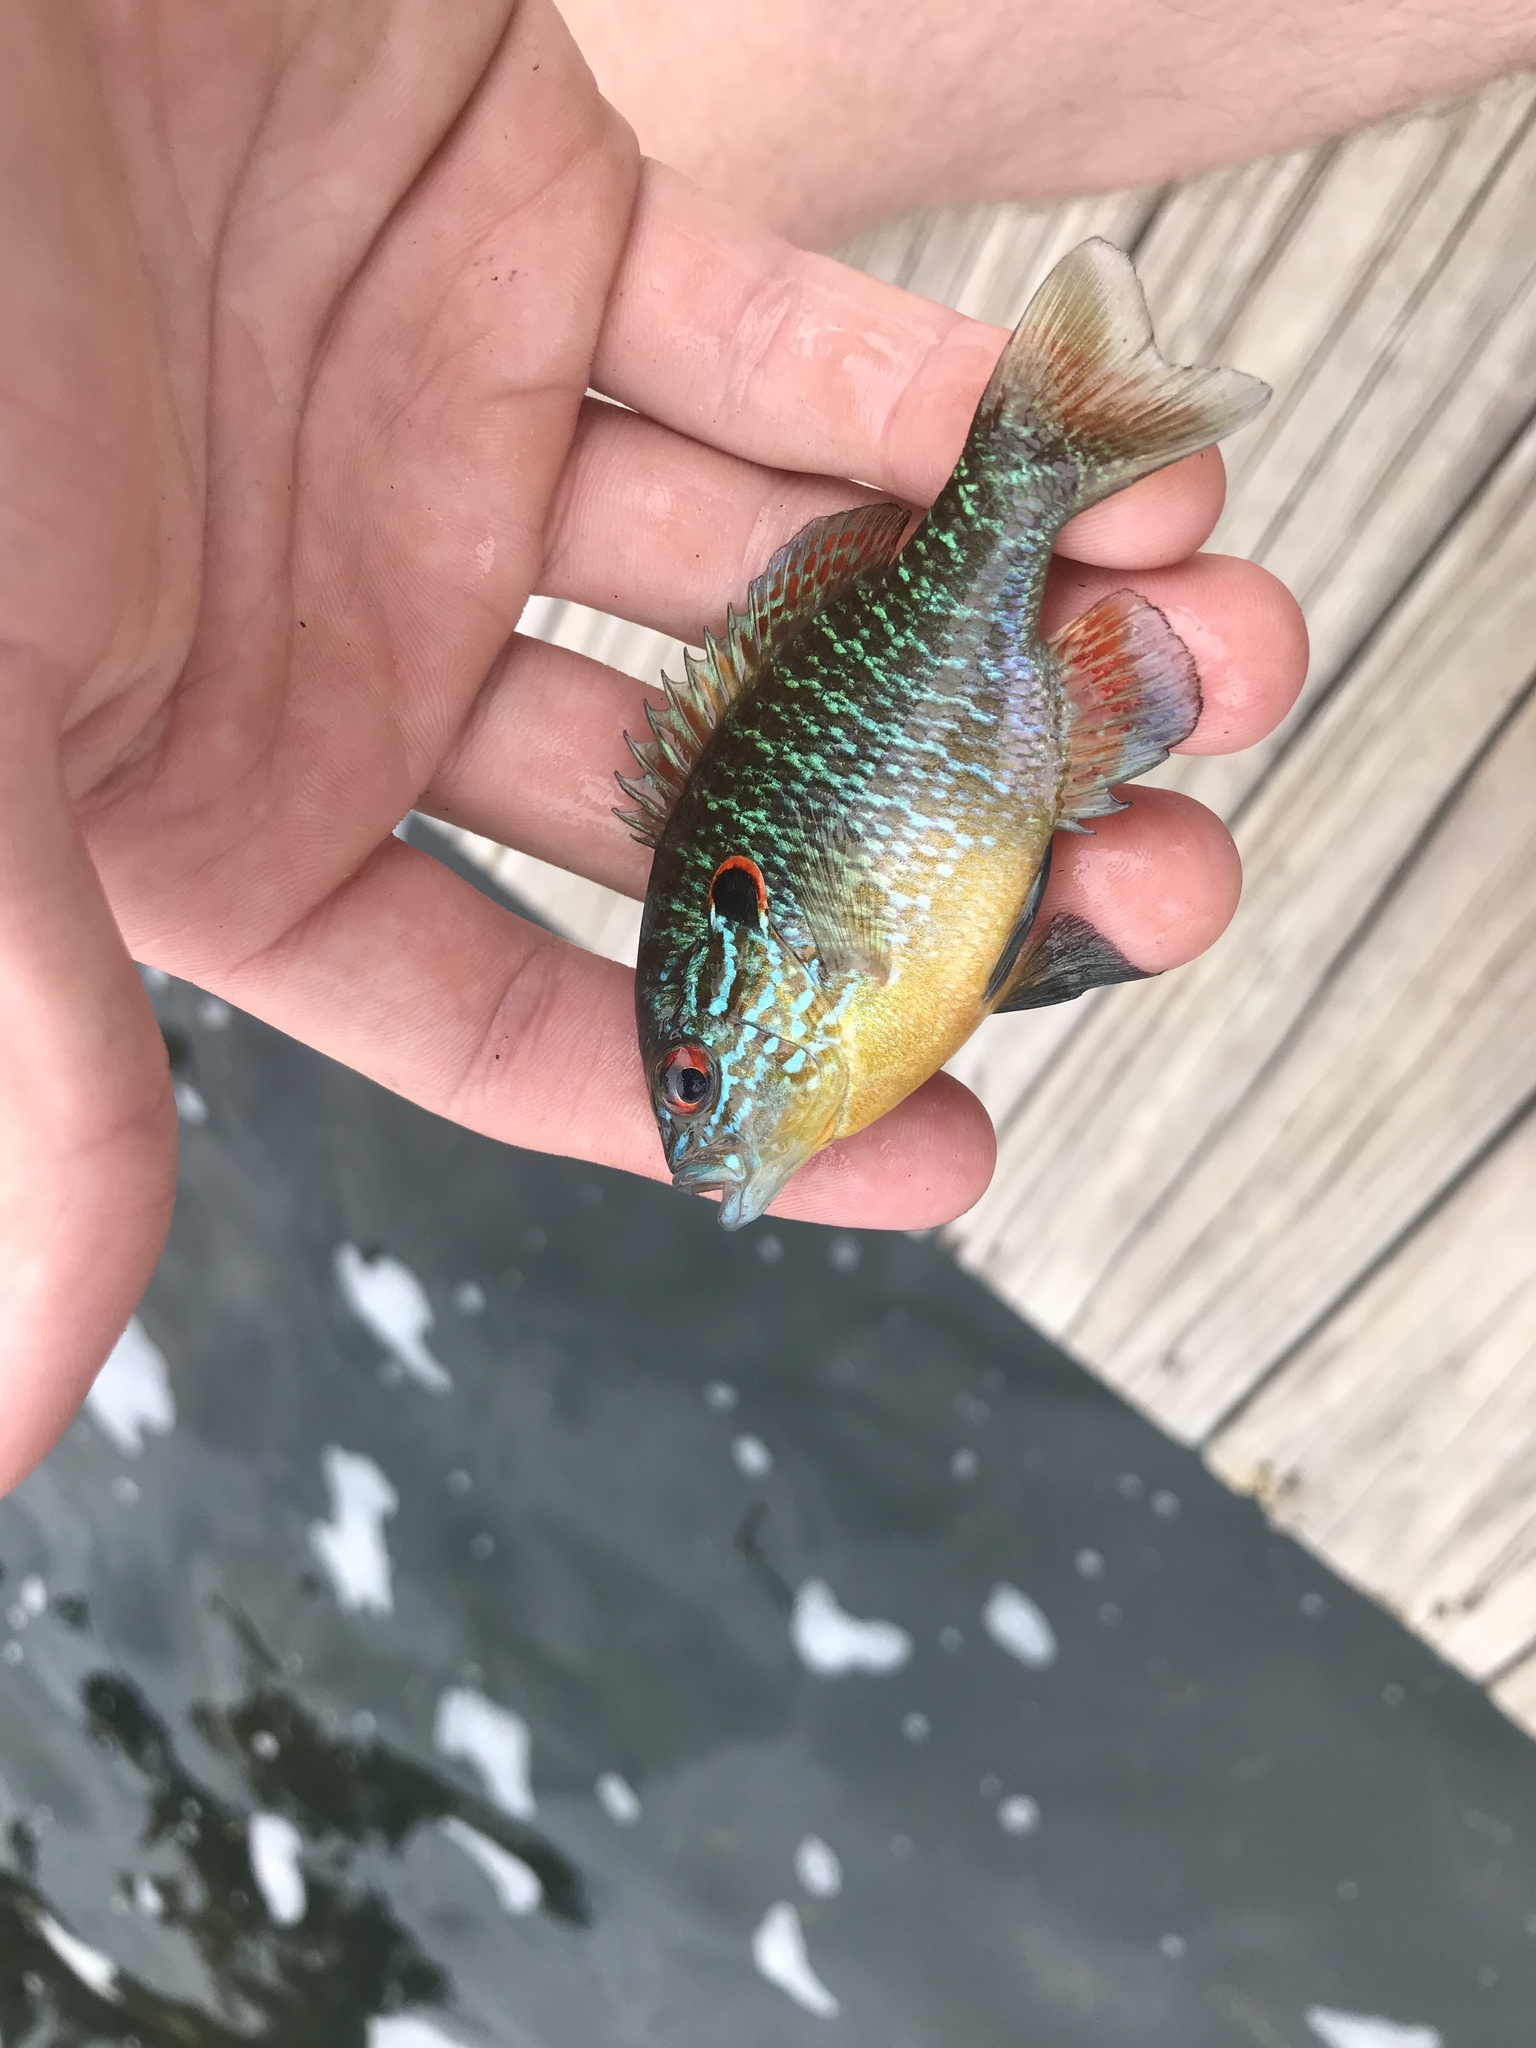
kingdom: Animalia
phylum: Chordata
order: Perciformes
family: Centrarchidae
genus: Lepomis
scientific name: Lepomis peltastes
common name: Northern sunfish
